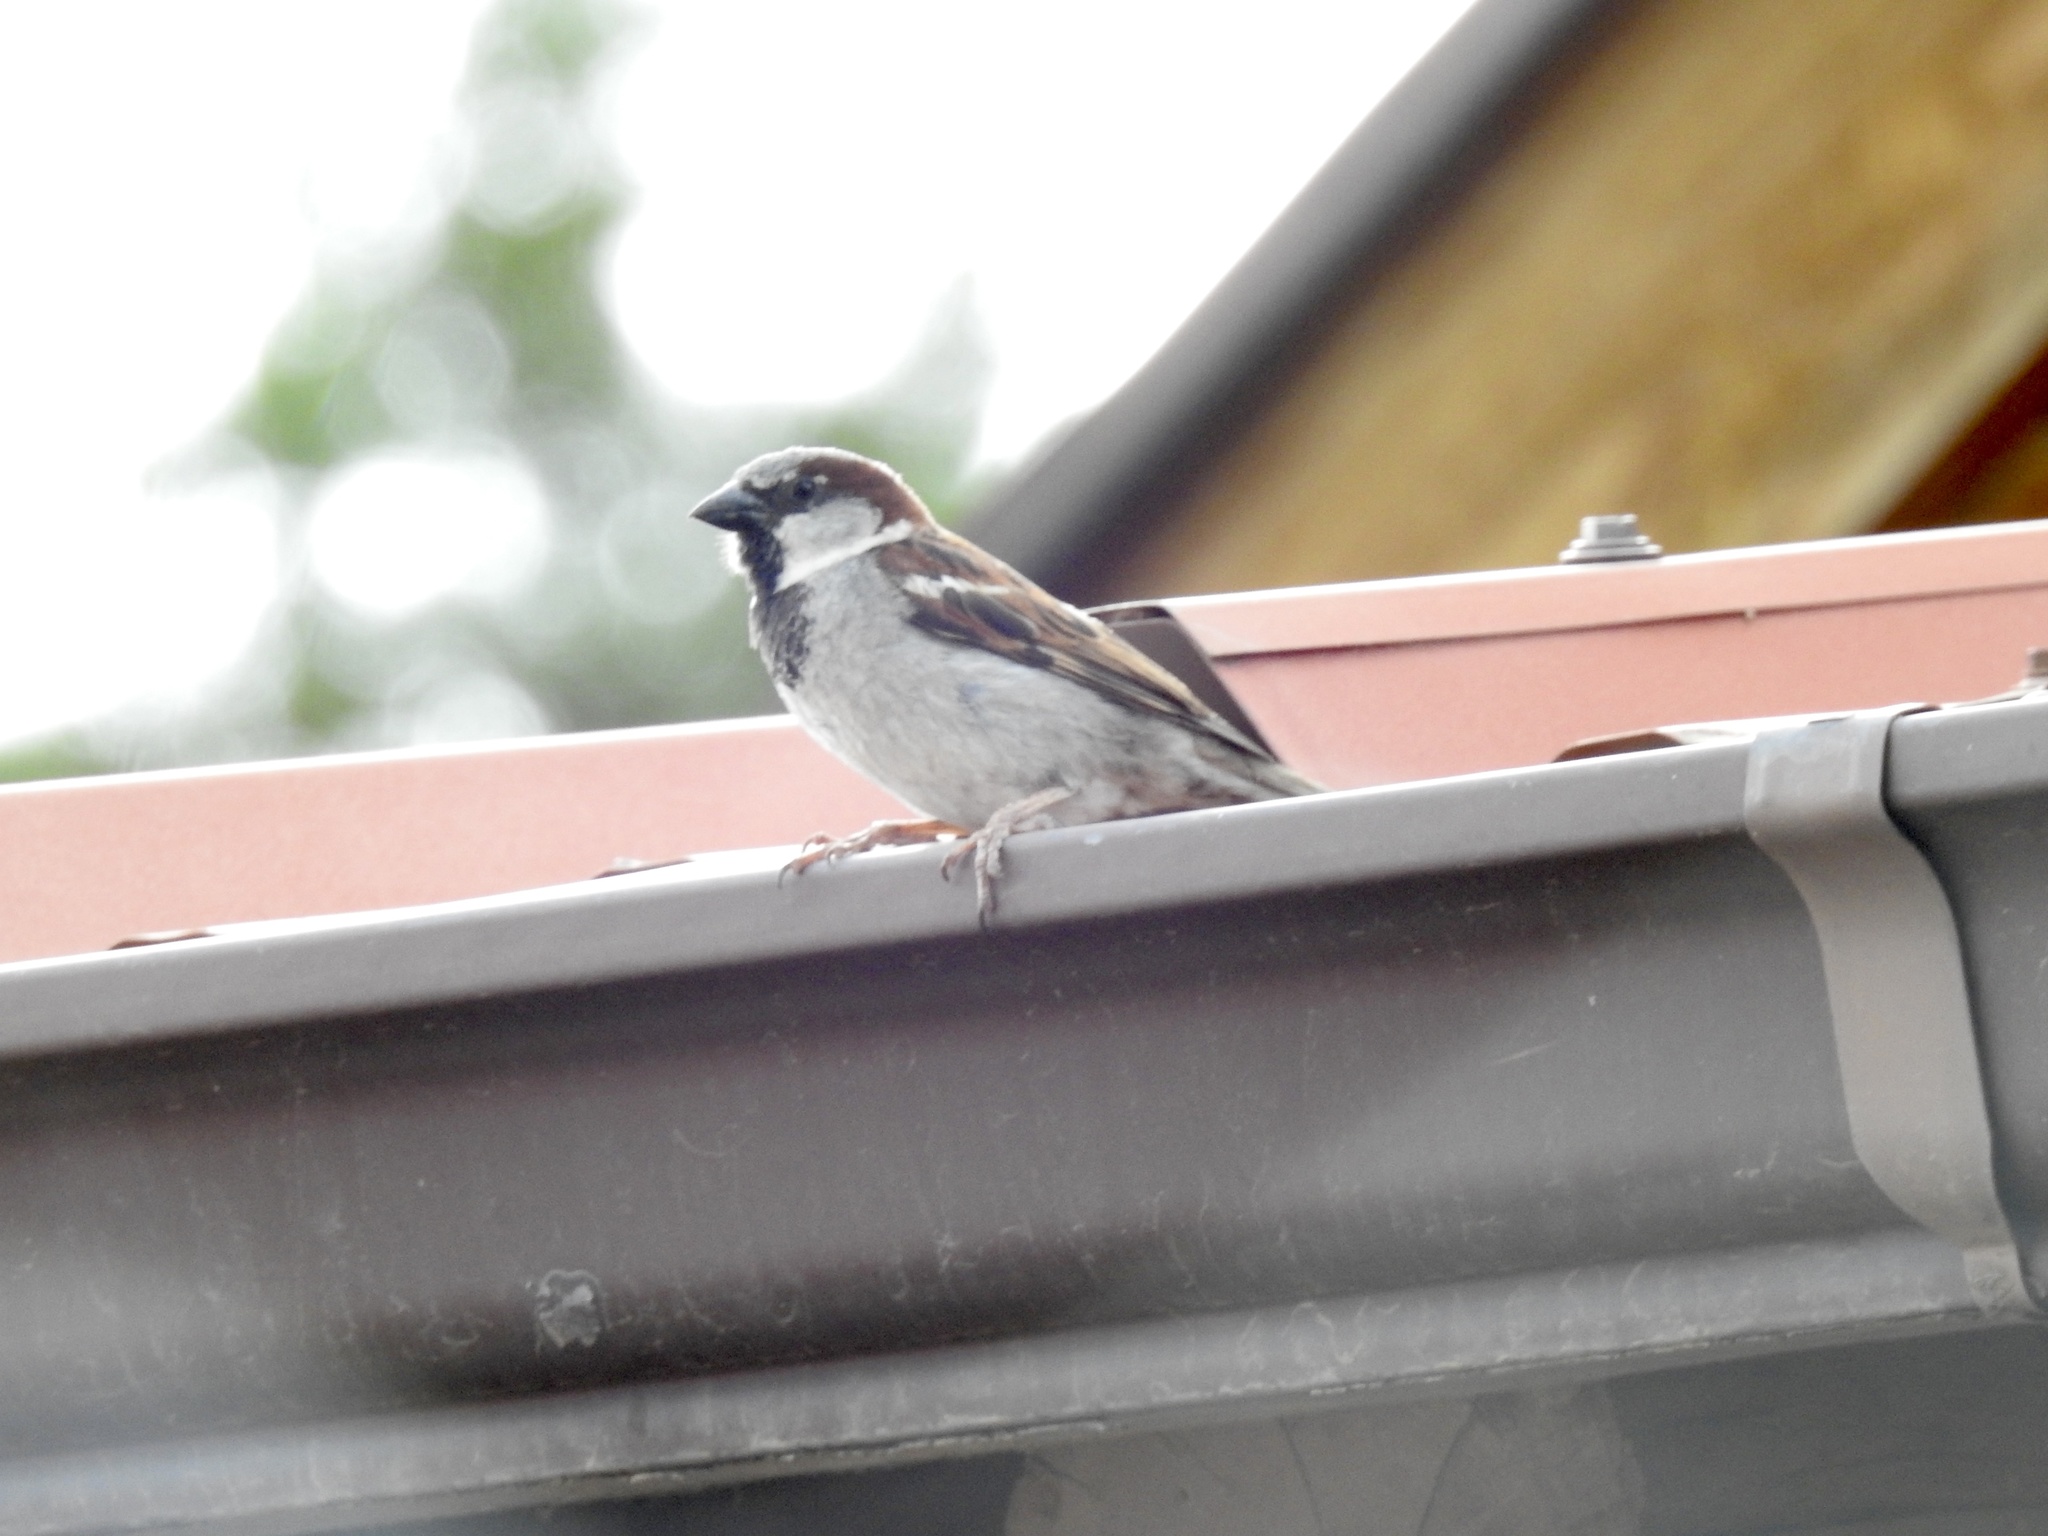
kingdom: Animalia
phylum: Chordata
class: Aves
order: Passeriformes
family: Passeridae
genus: Passer
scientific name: Passer domesticus
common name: House sparrow
